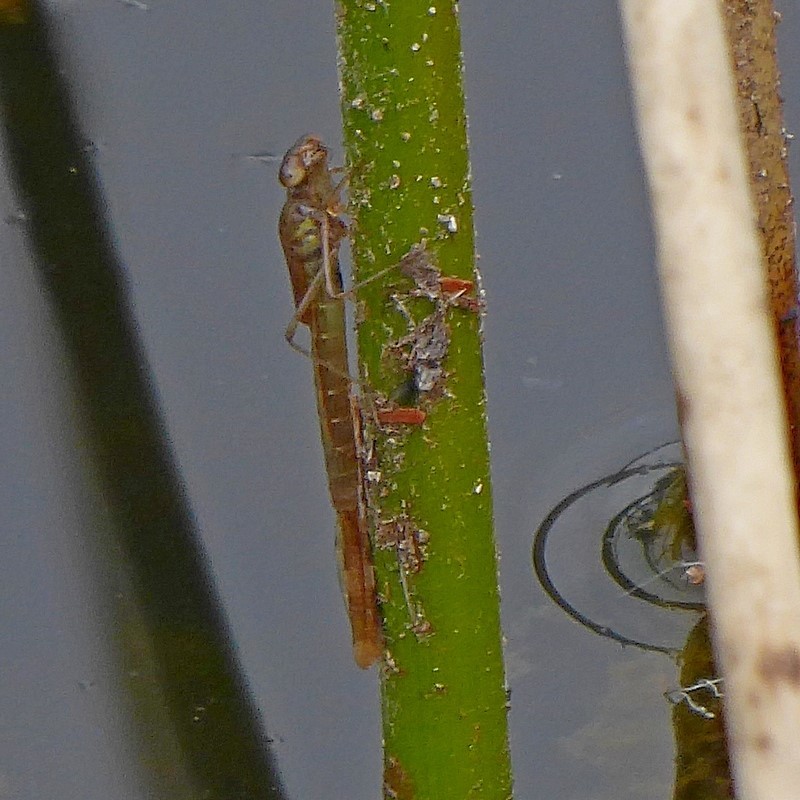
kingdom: Animalia
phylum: Arthropoda
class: Insecta
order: Odonata
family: Lestidae
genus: Austrolestes
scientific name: Austrolestes psyche
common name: Cup ringtail
